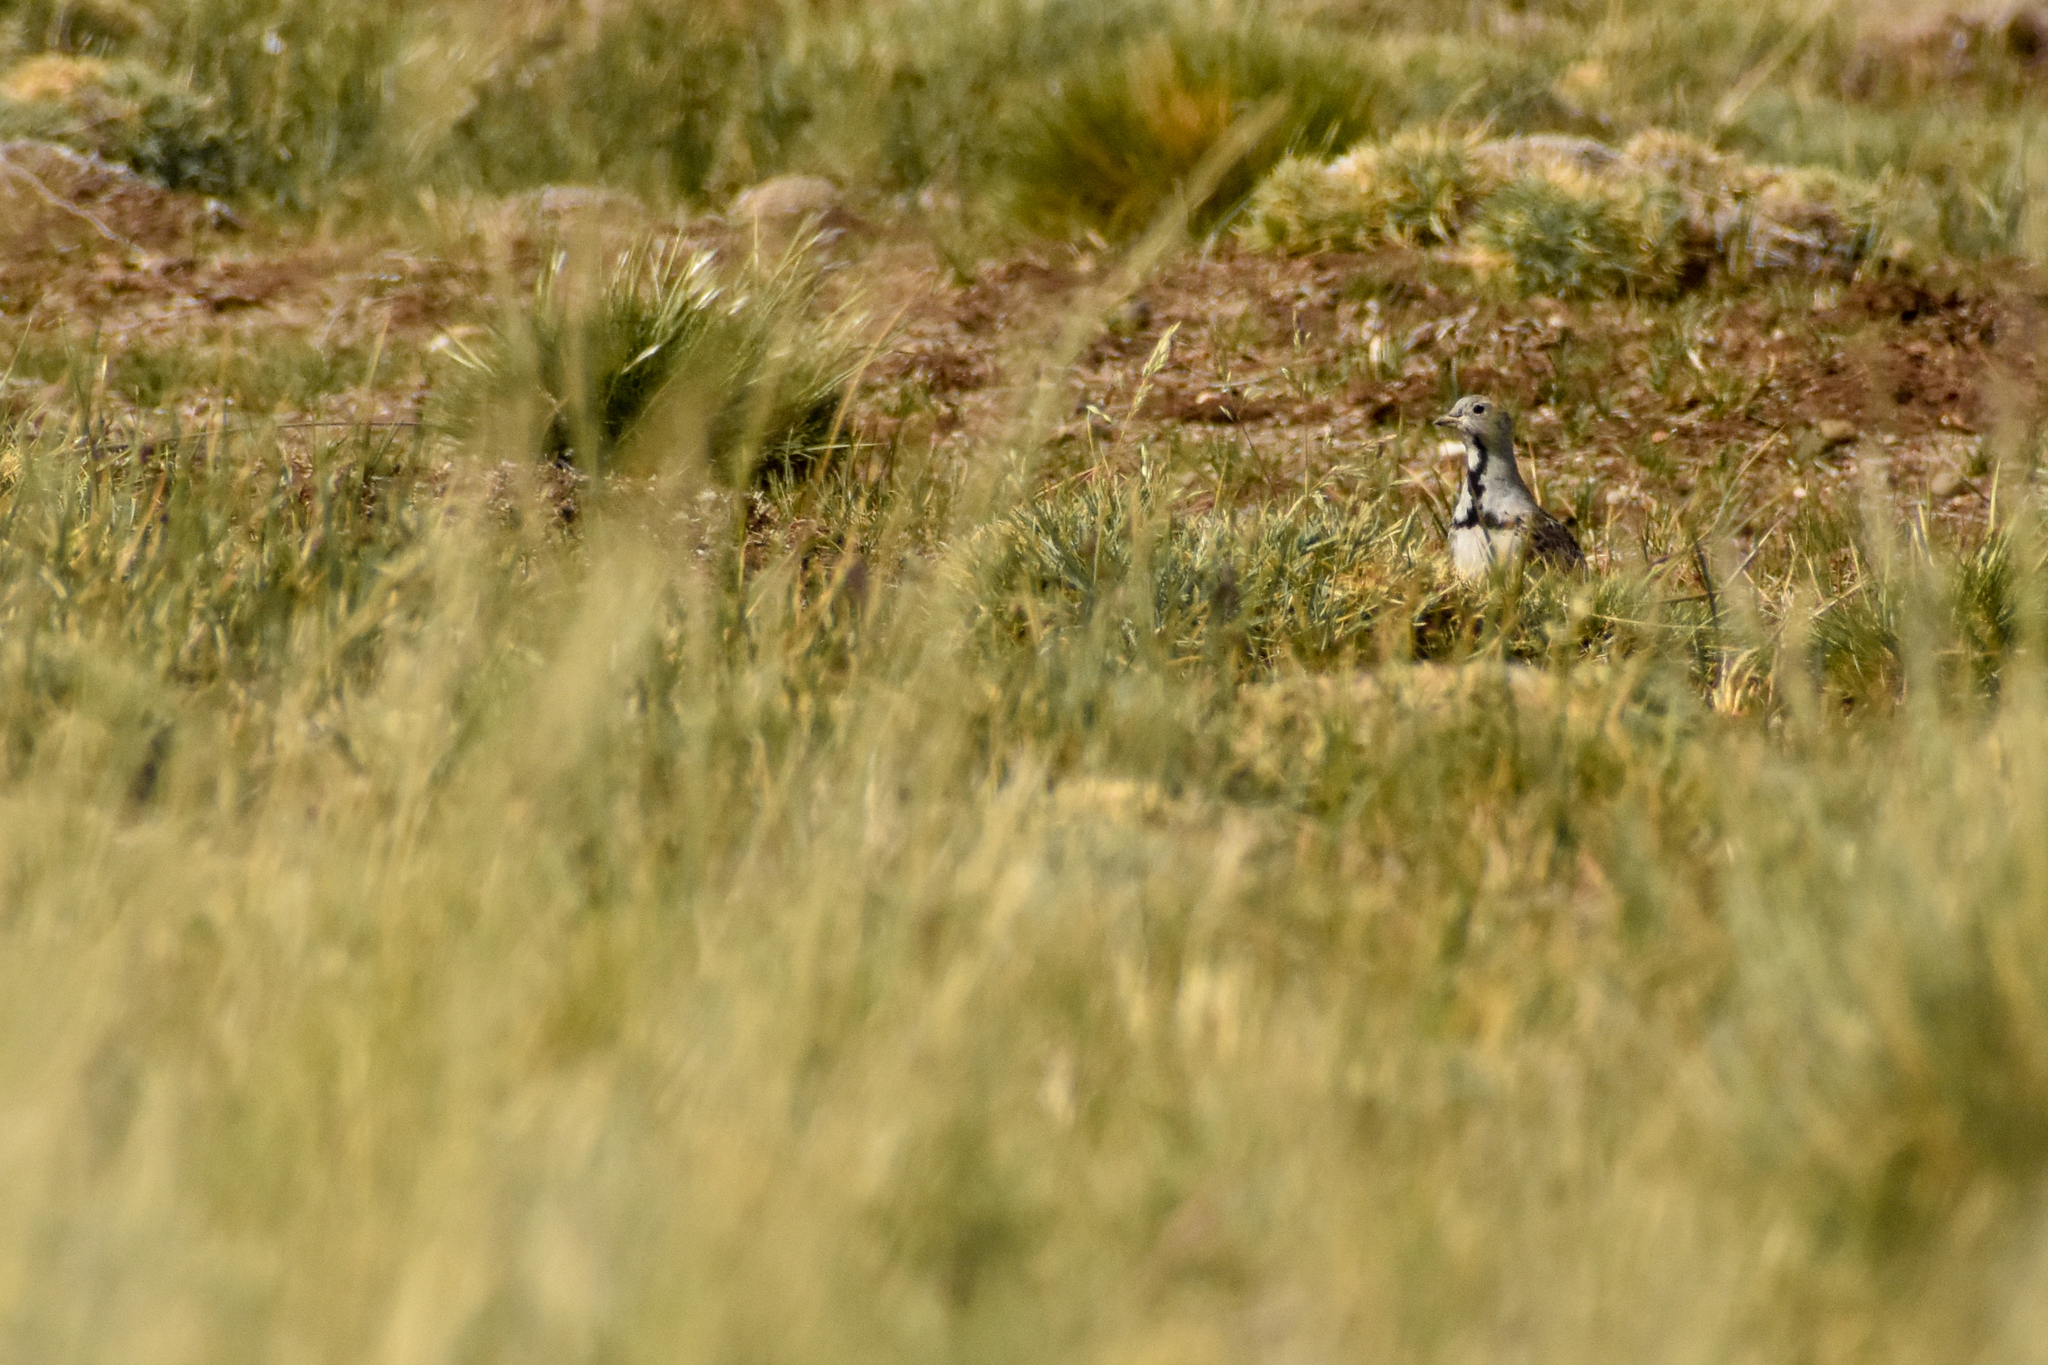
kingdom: Animalia
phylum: Chordata
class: Aves
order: Charadriiformes
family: Thinocoridae
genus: Thinocorus
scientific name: Thinocorus rumicivorus
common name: Least seedsnipe
